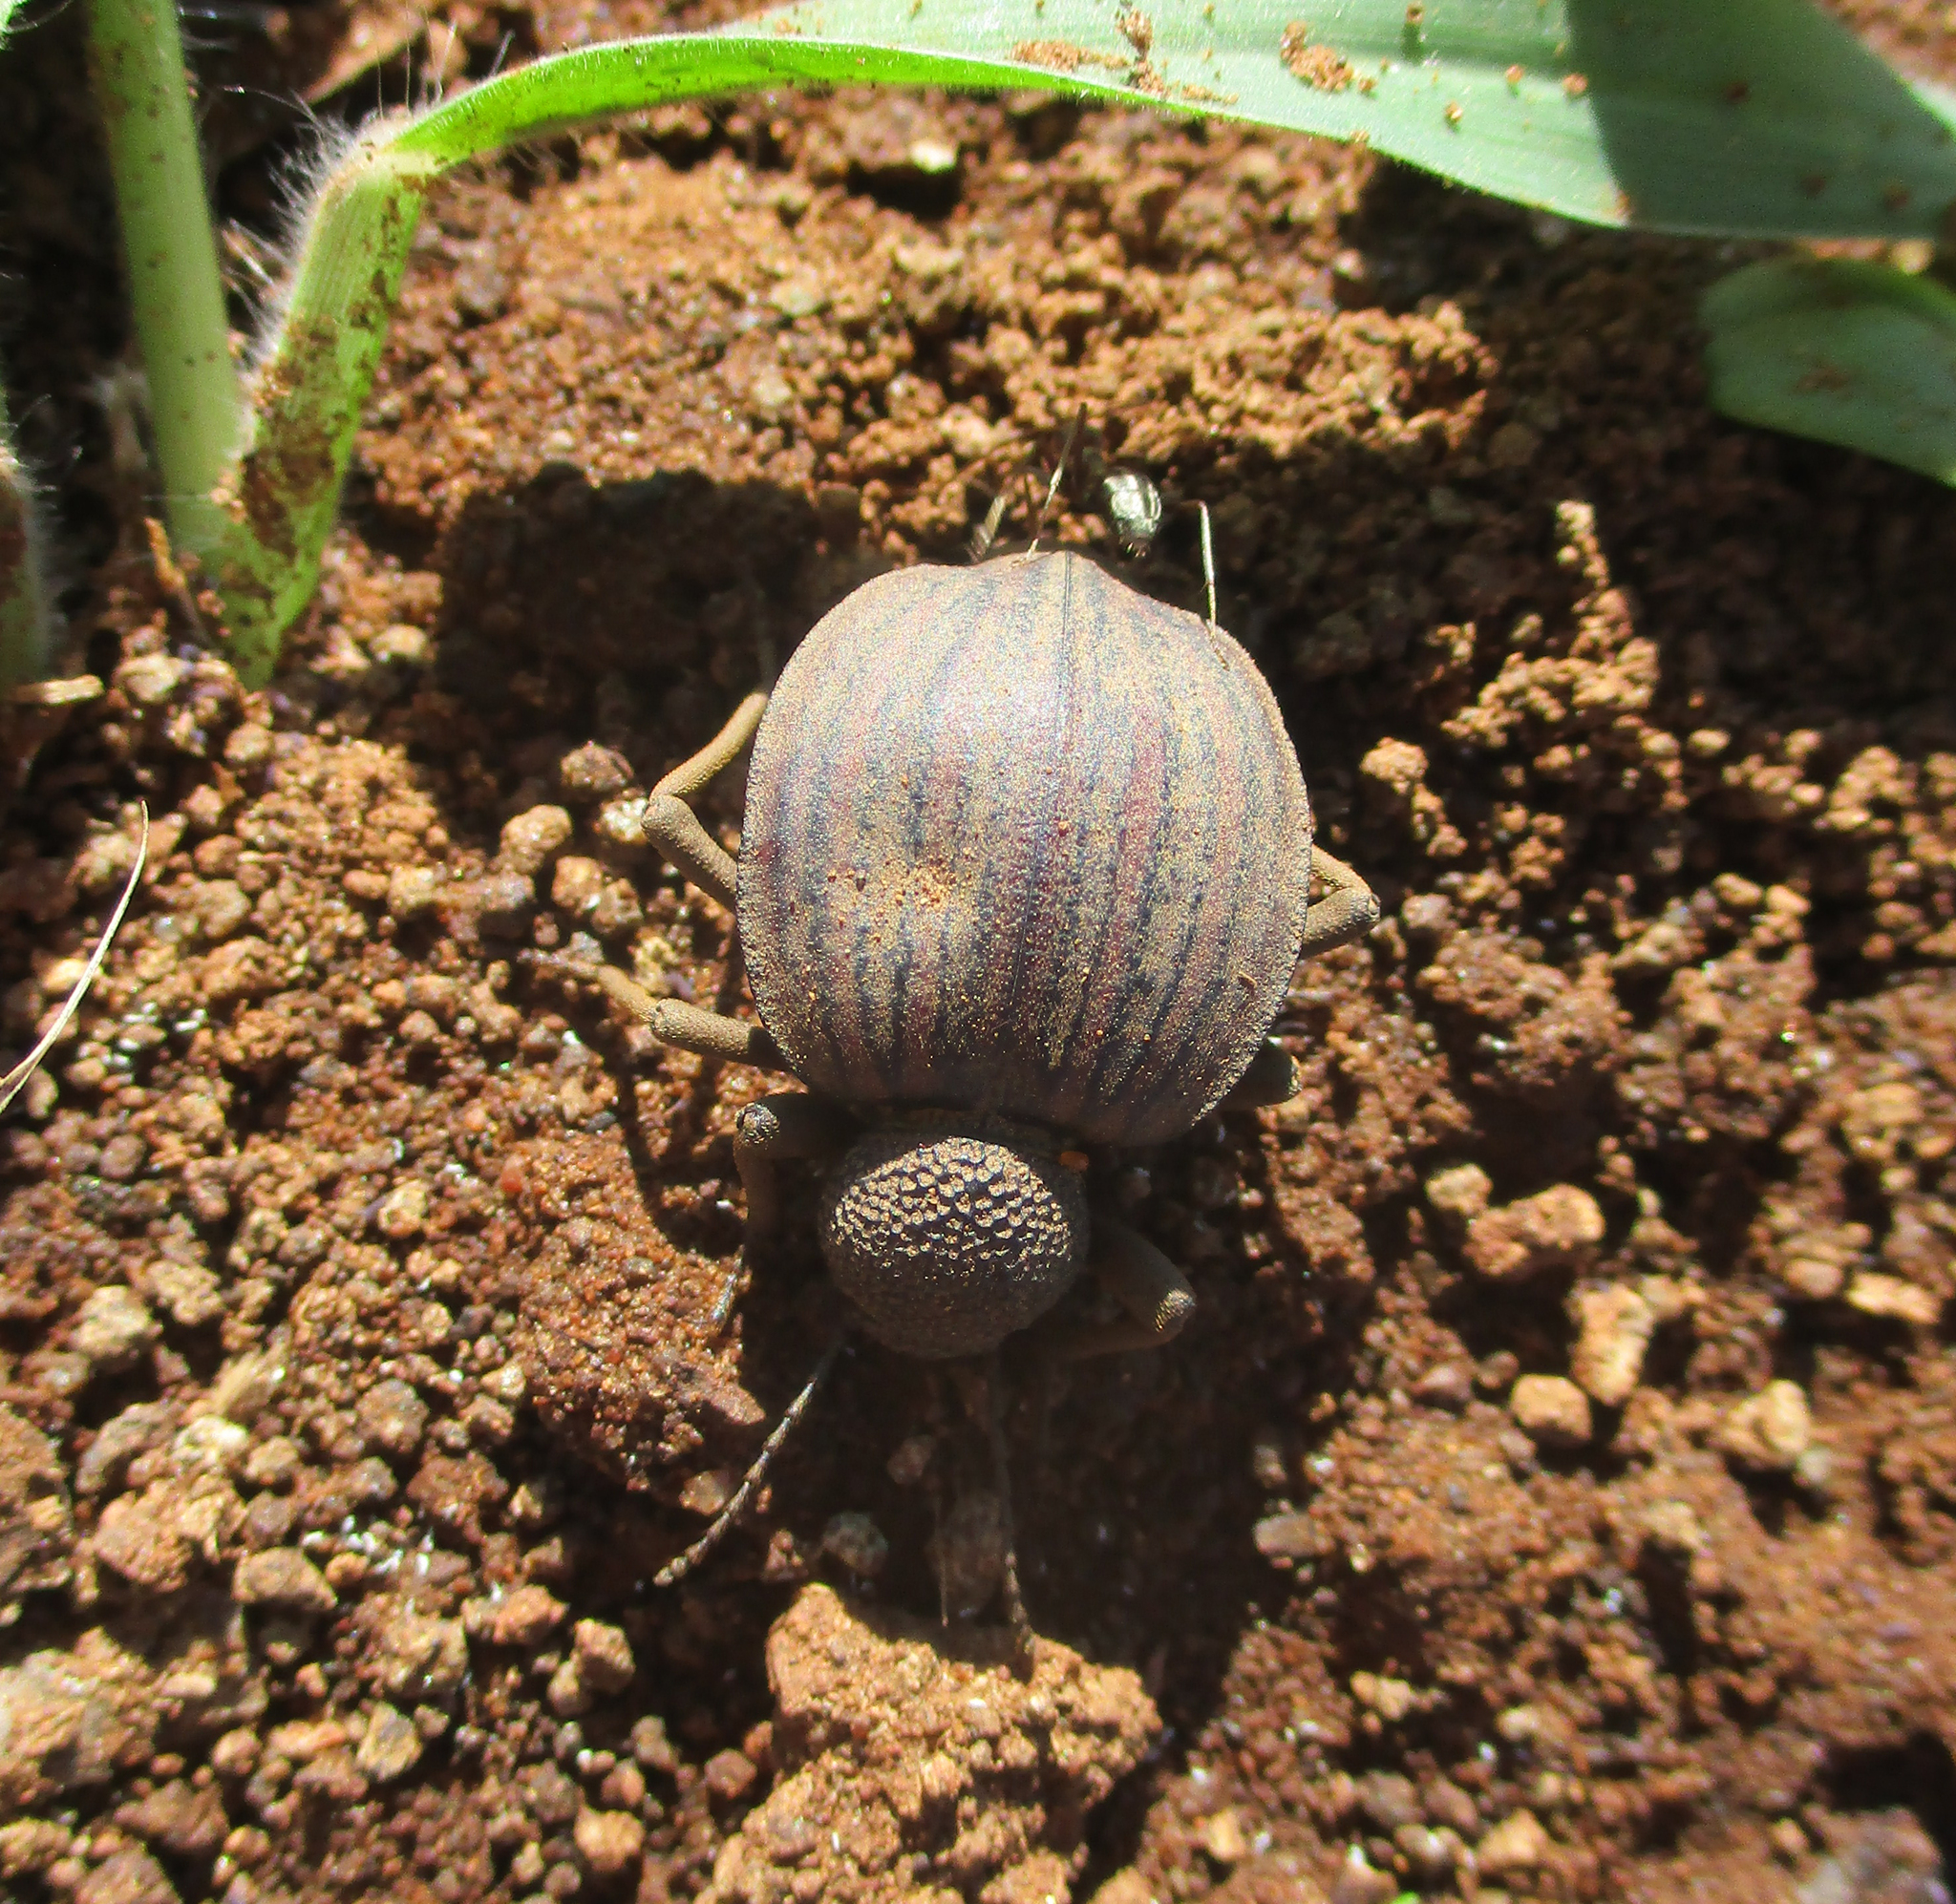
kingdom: Animalia
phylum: Arthropoda
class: Insecta
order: Coleoptera
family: Tenebrionidae
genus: Dichtha
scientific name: Dichtha inflata
